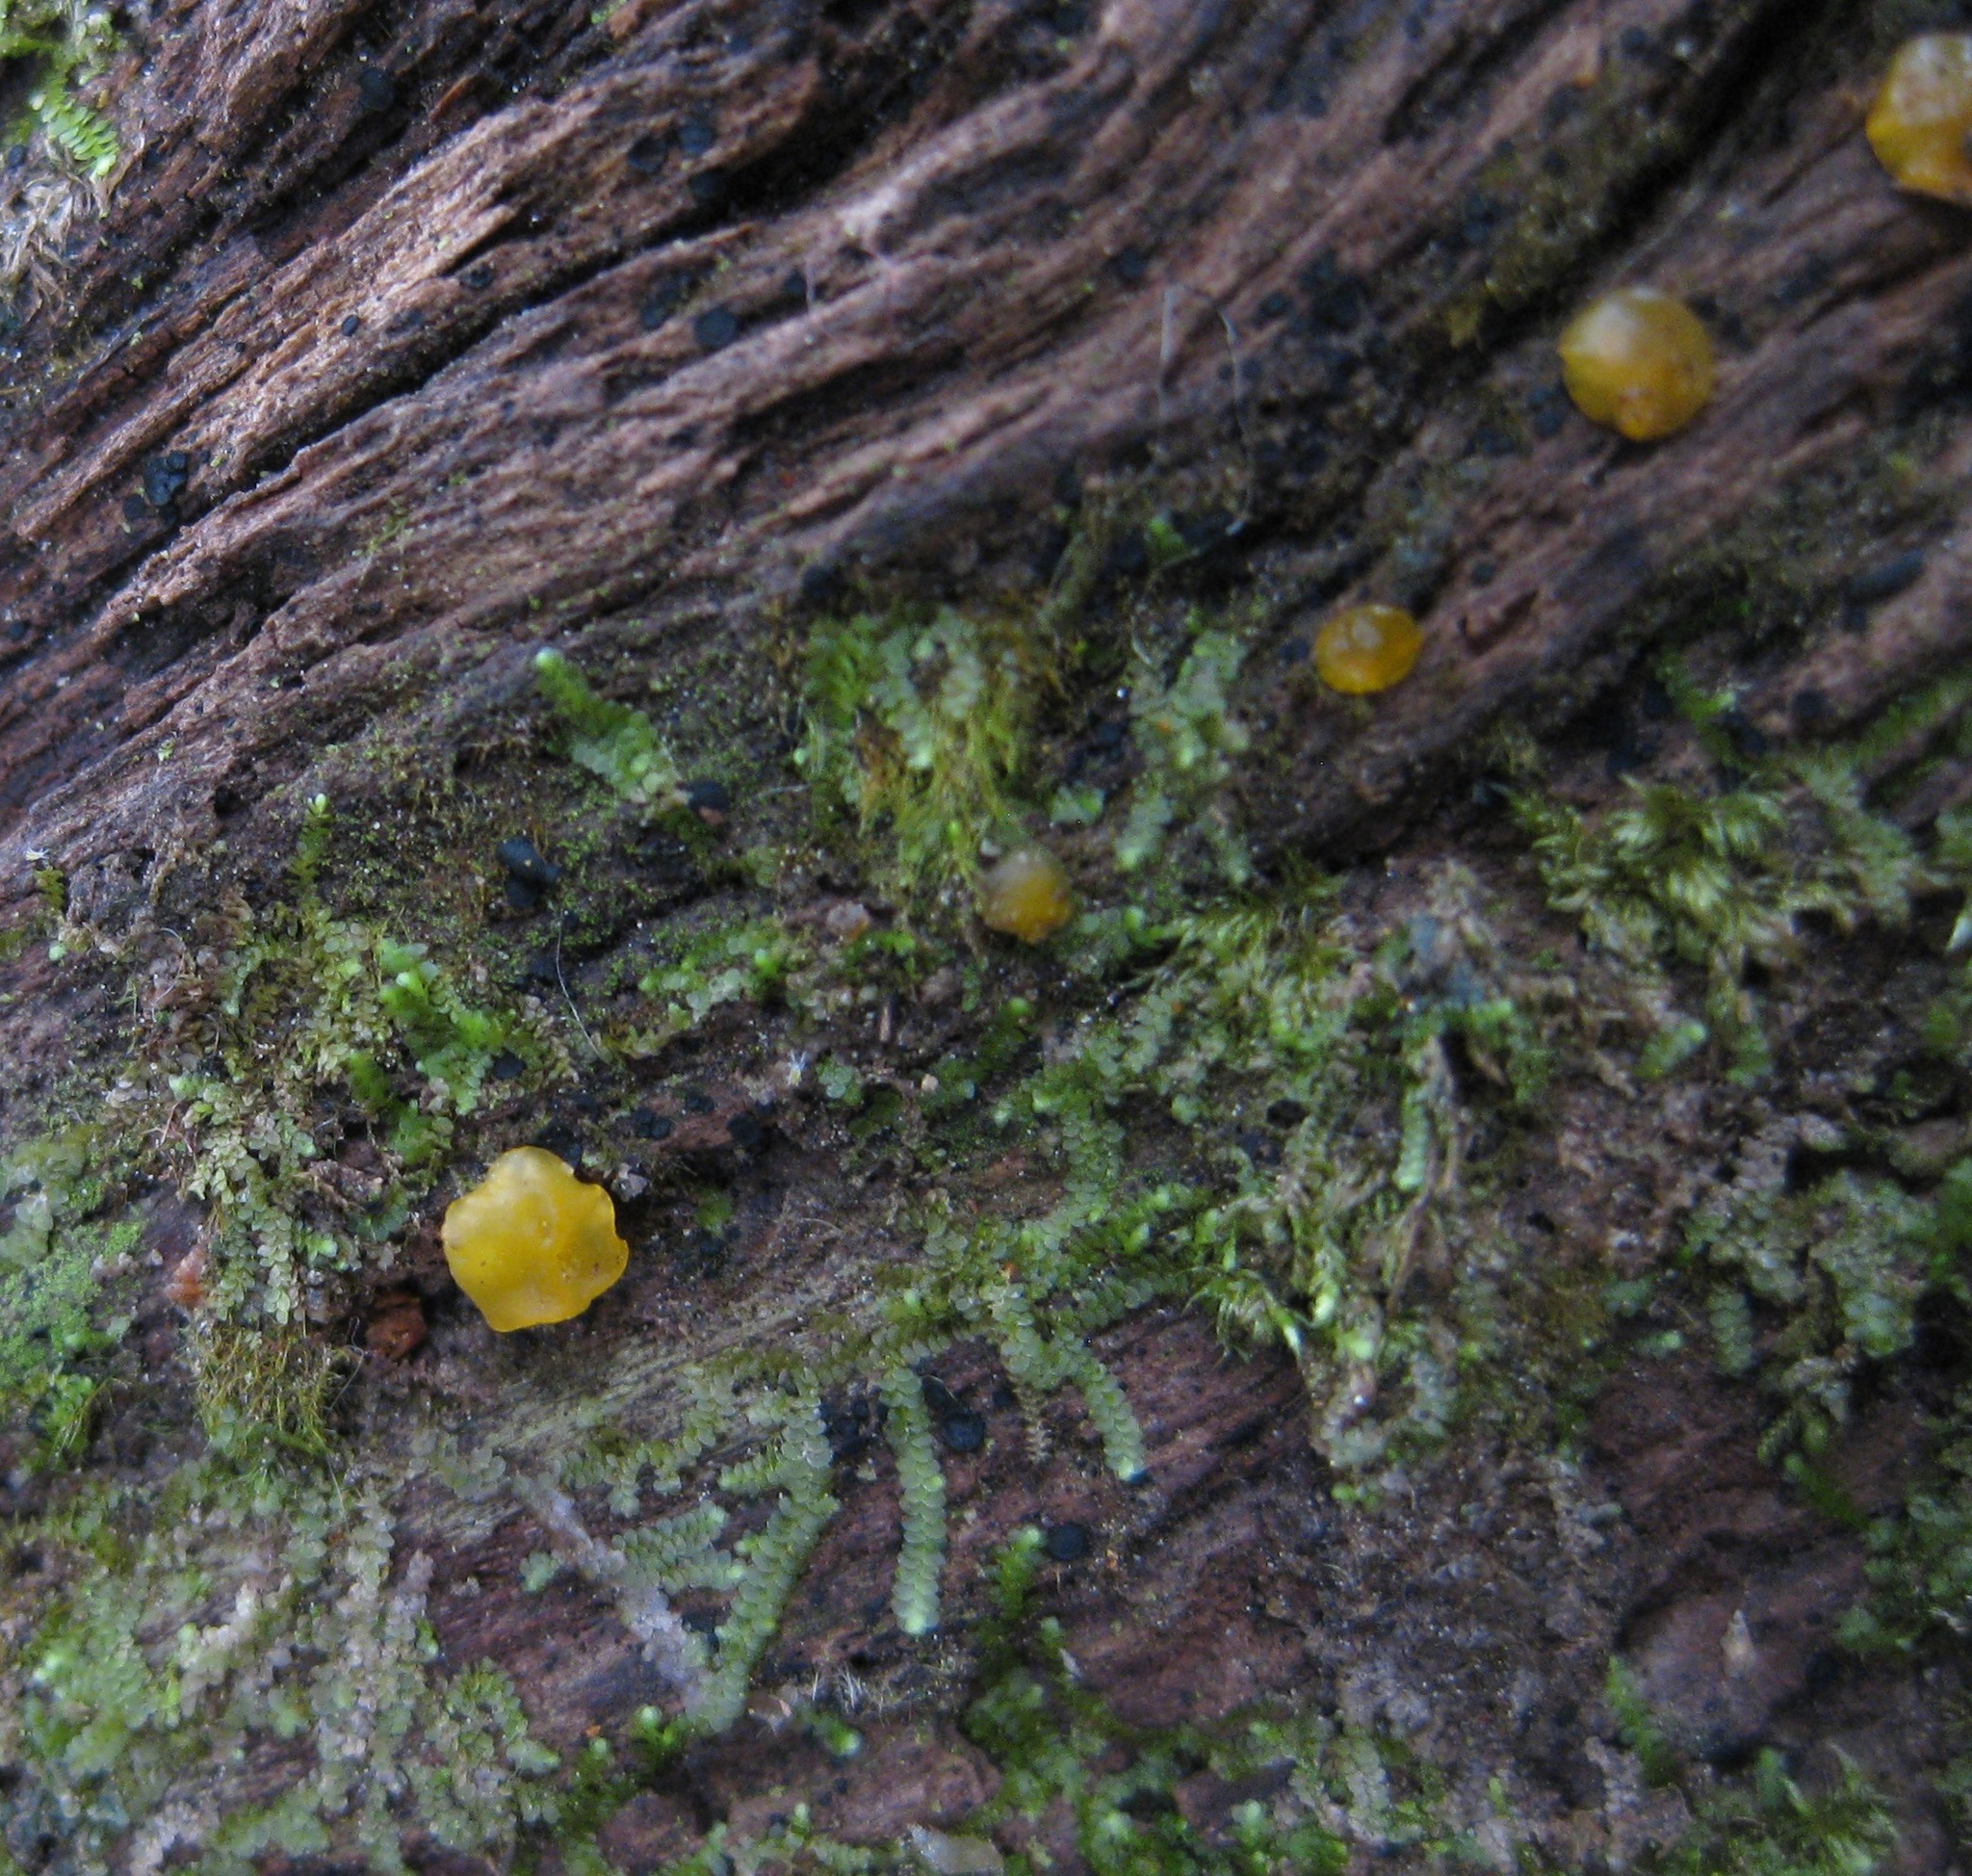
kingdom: Fungi
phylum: Ascomycota
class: Orbiliomycetes
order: Orbiliales
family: Orbiliaceae
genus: Orbilia
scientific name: Orbilia
